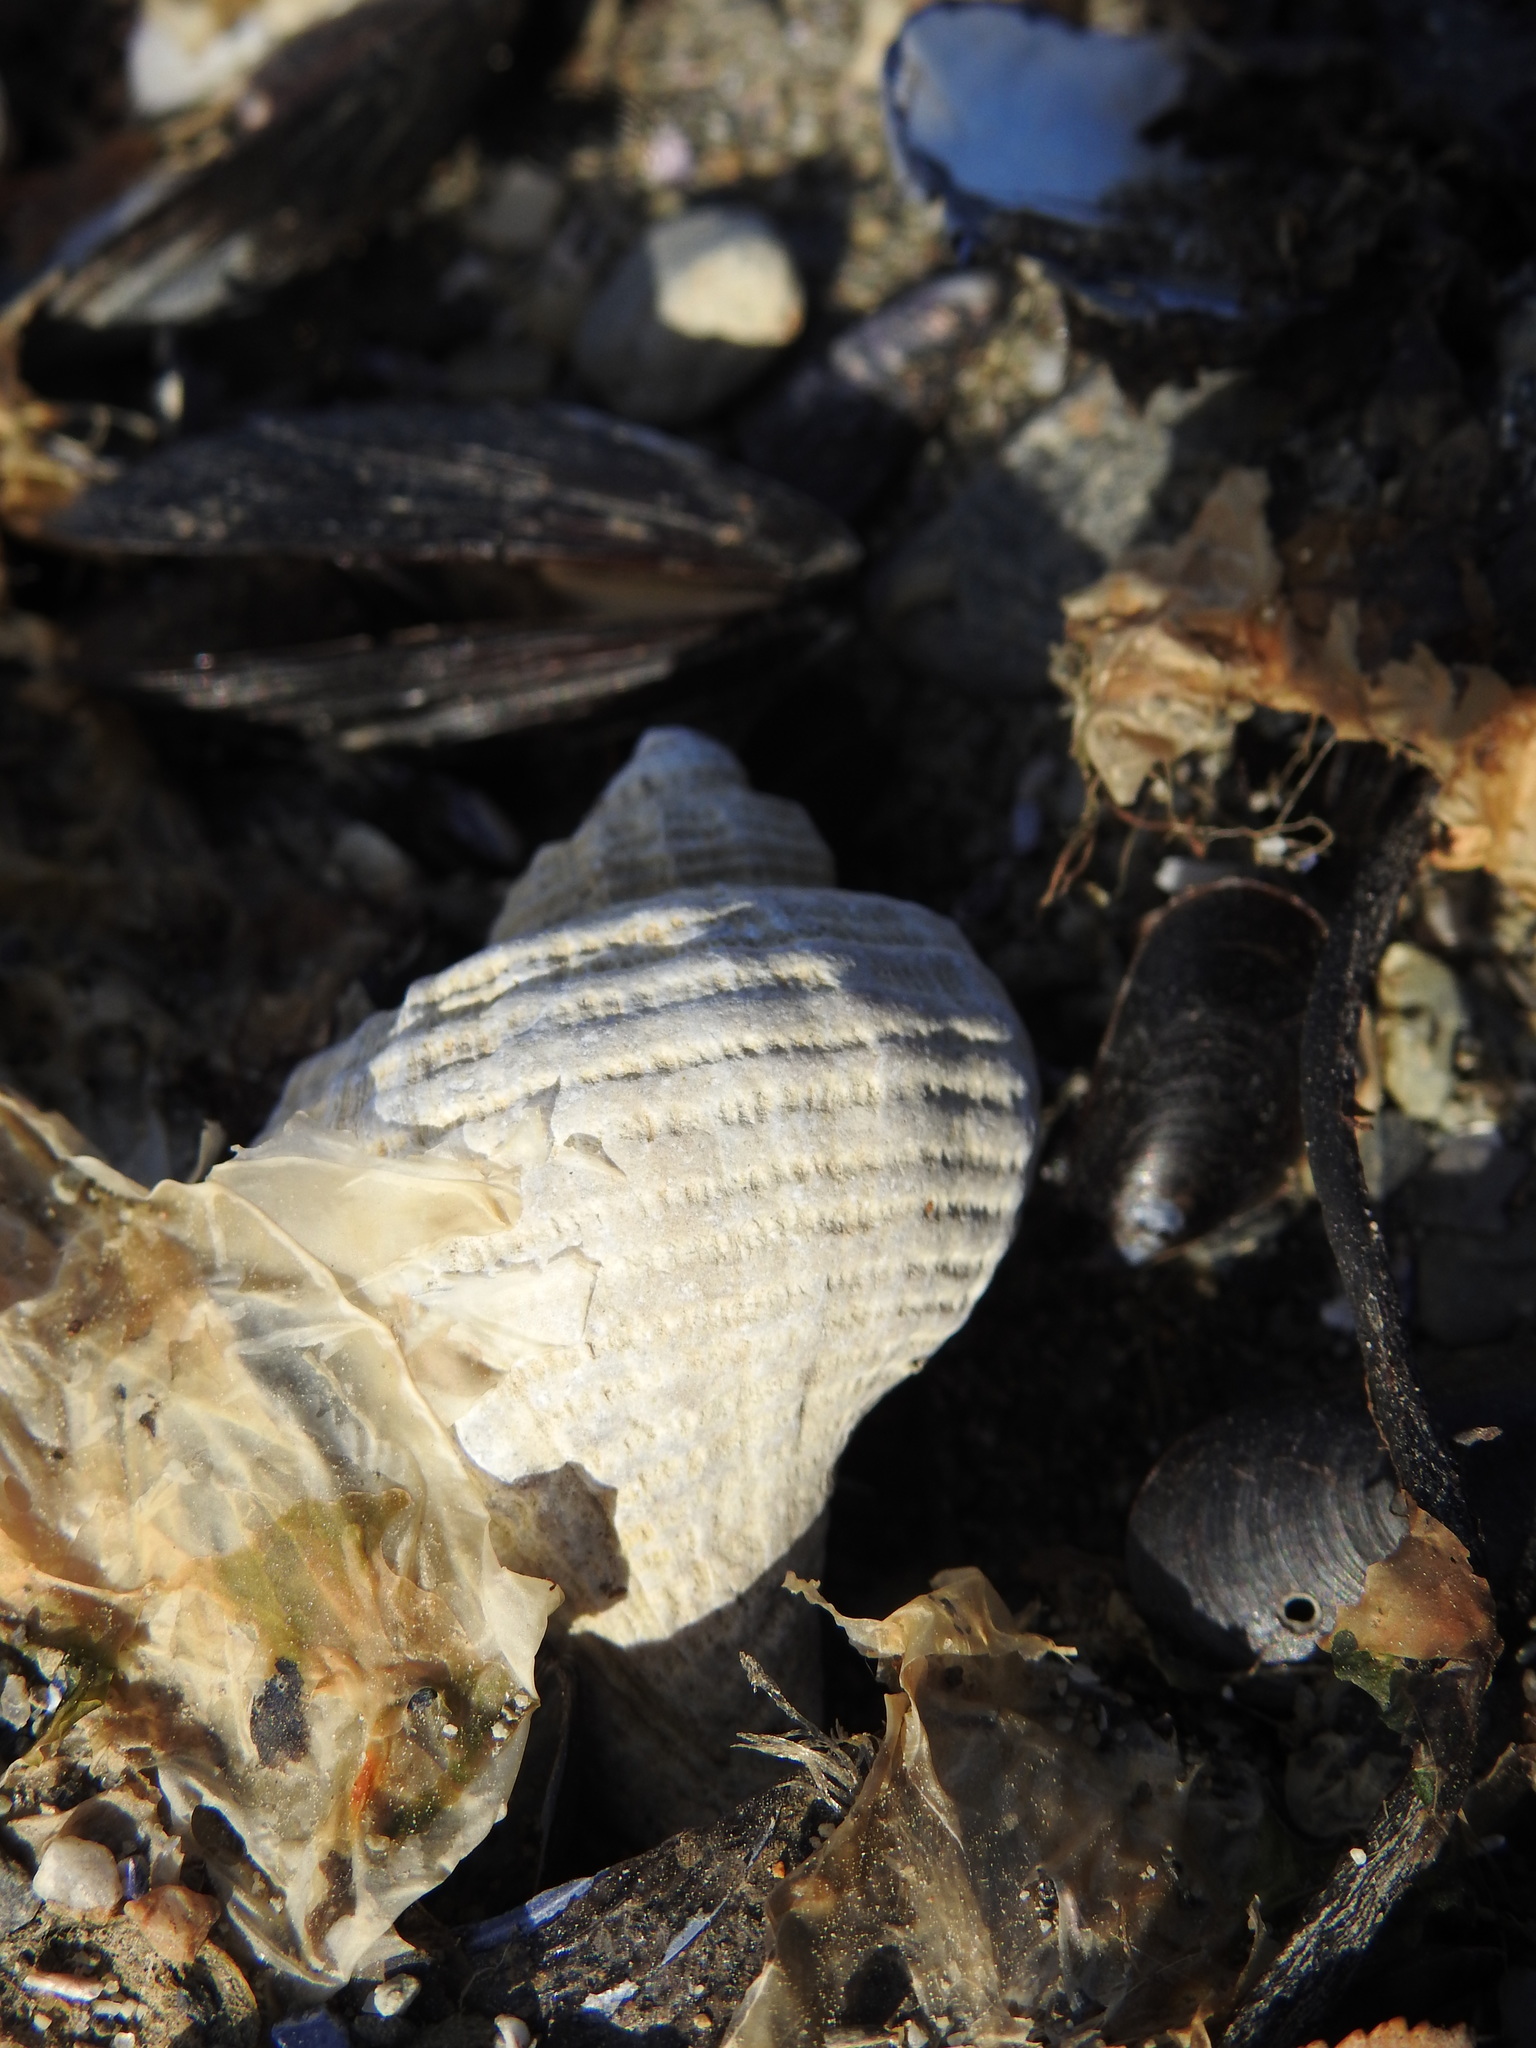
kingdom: Animalia
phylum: Mollusca
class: Gastropoda
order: Neogastropoda
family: Muricidae
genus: Trophon
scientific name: Trophon geversianus
